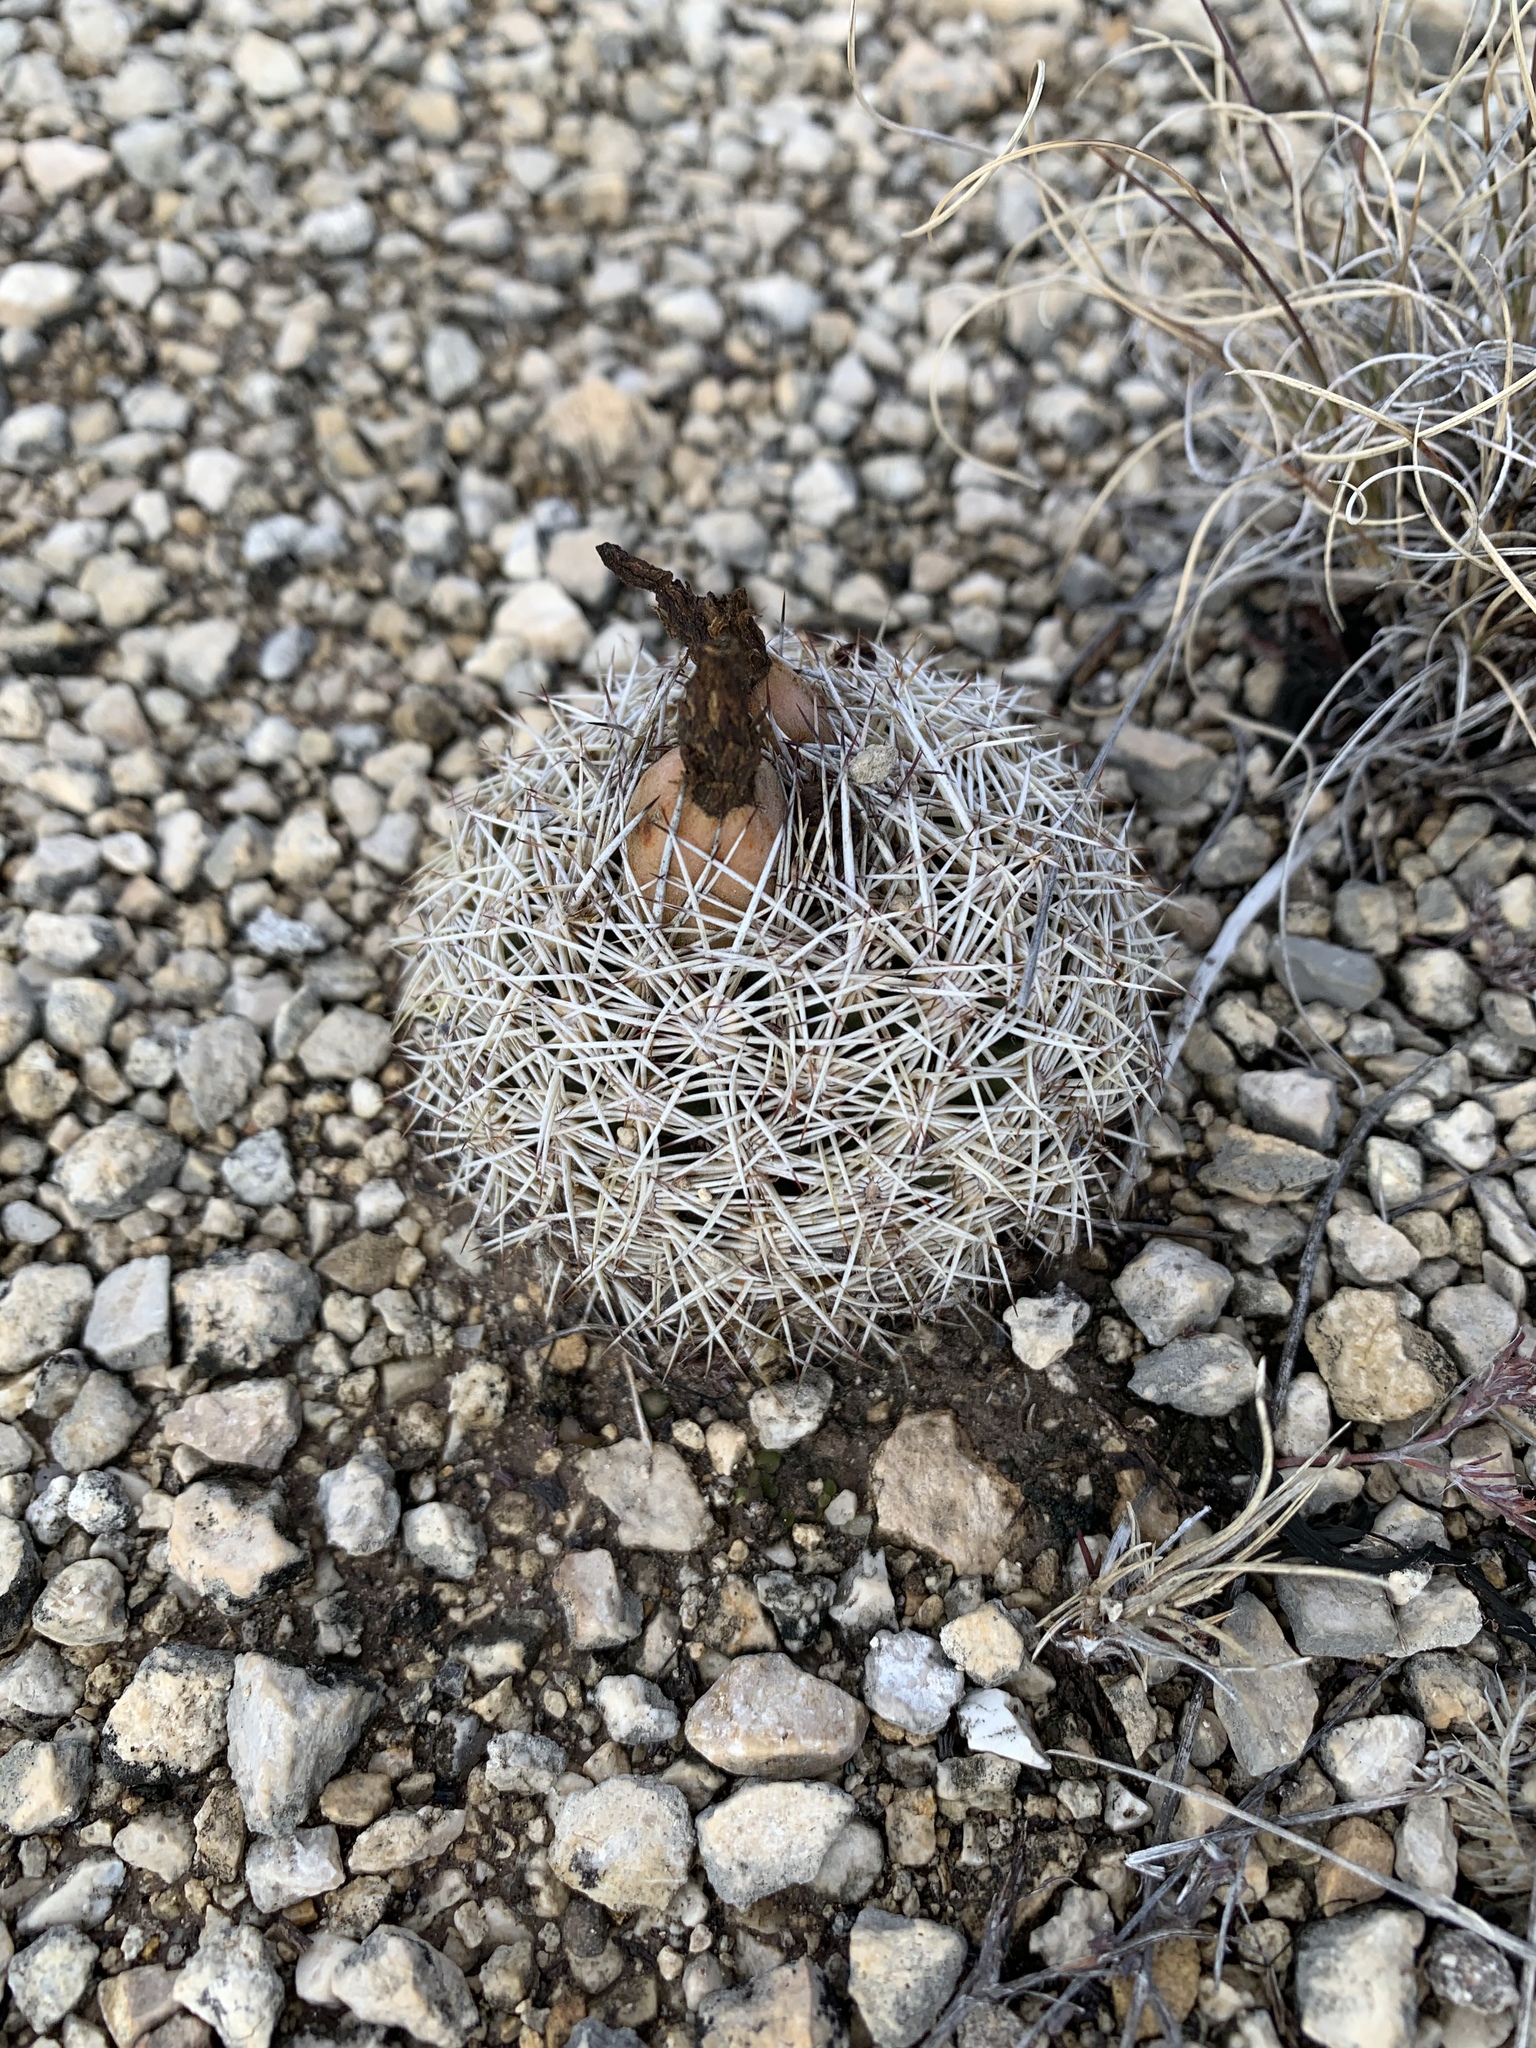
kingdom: Plantae
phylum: Tracheophyta
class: Magnoliopsida
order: Caryophyllales
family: Cactaceae
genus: Coryphantha
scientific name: Coryphantha echinus
